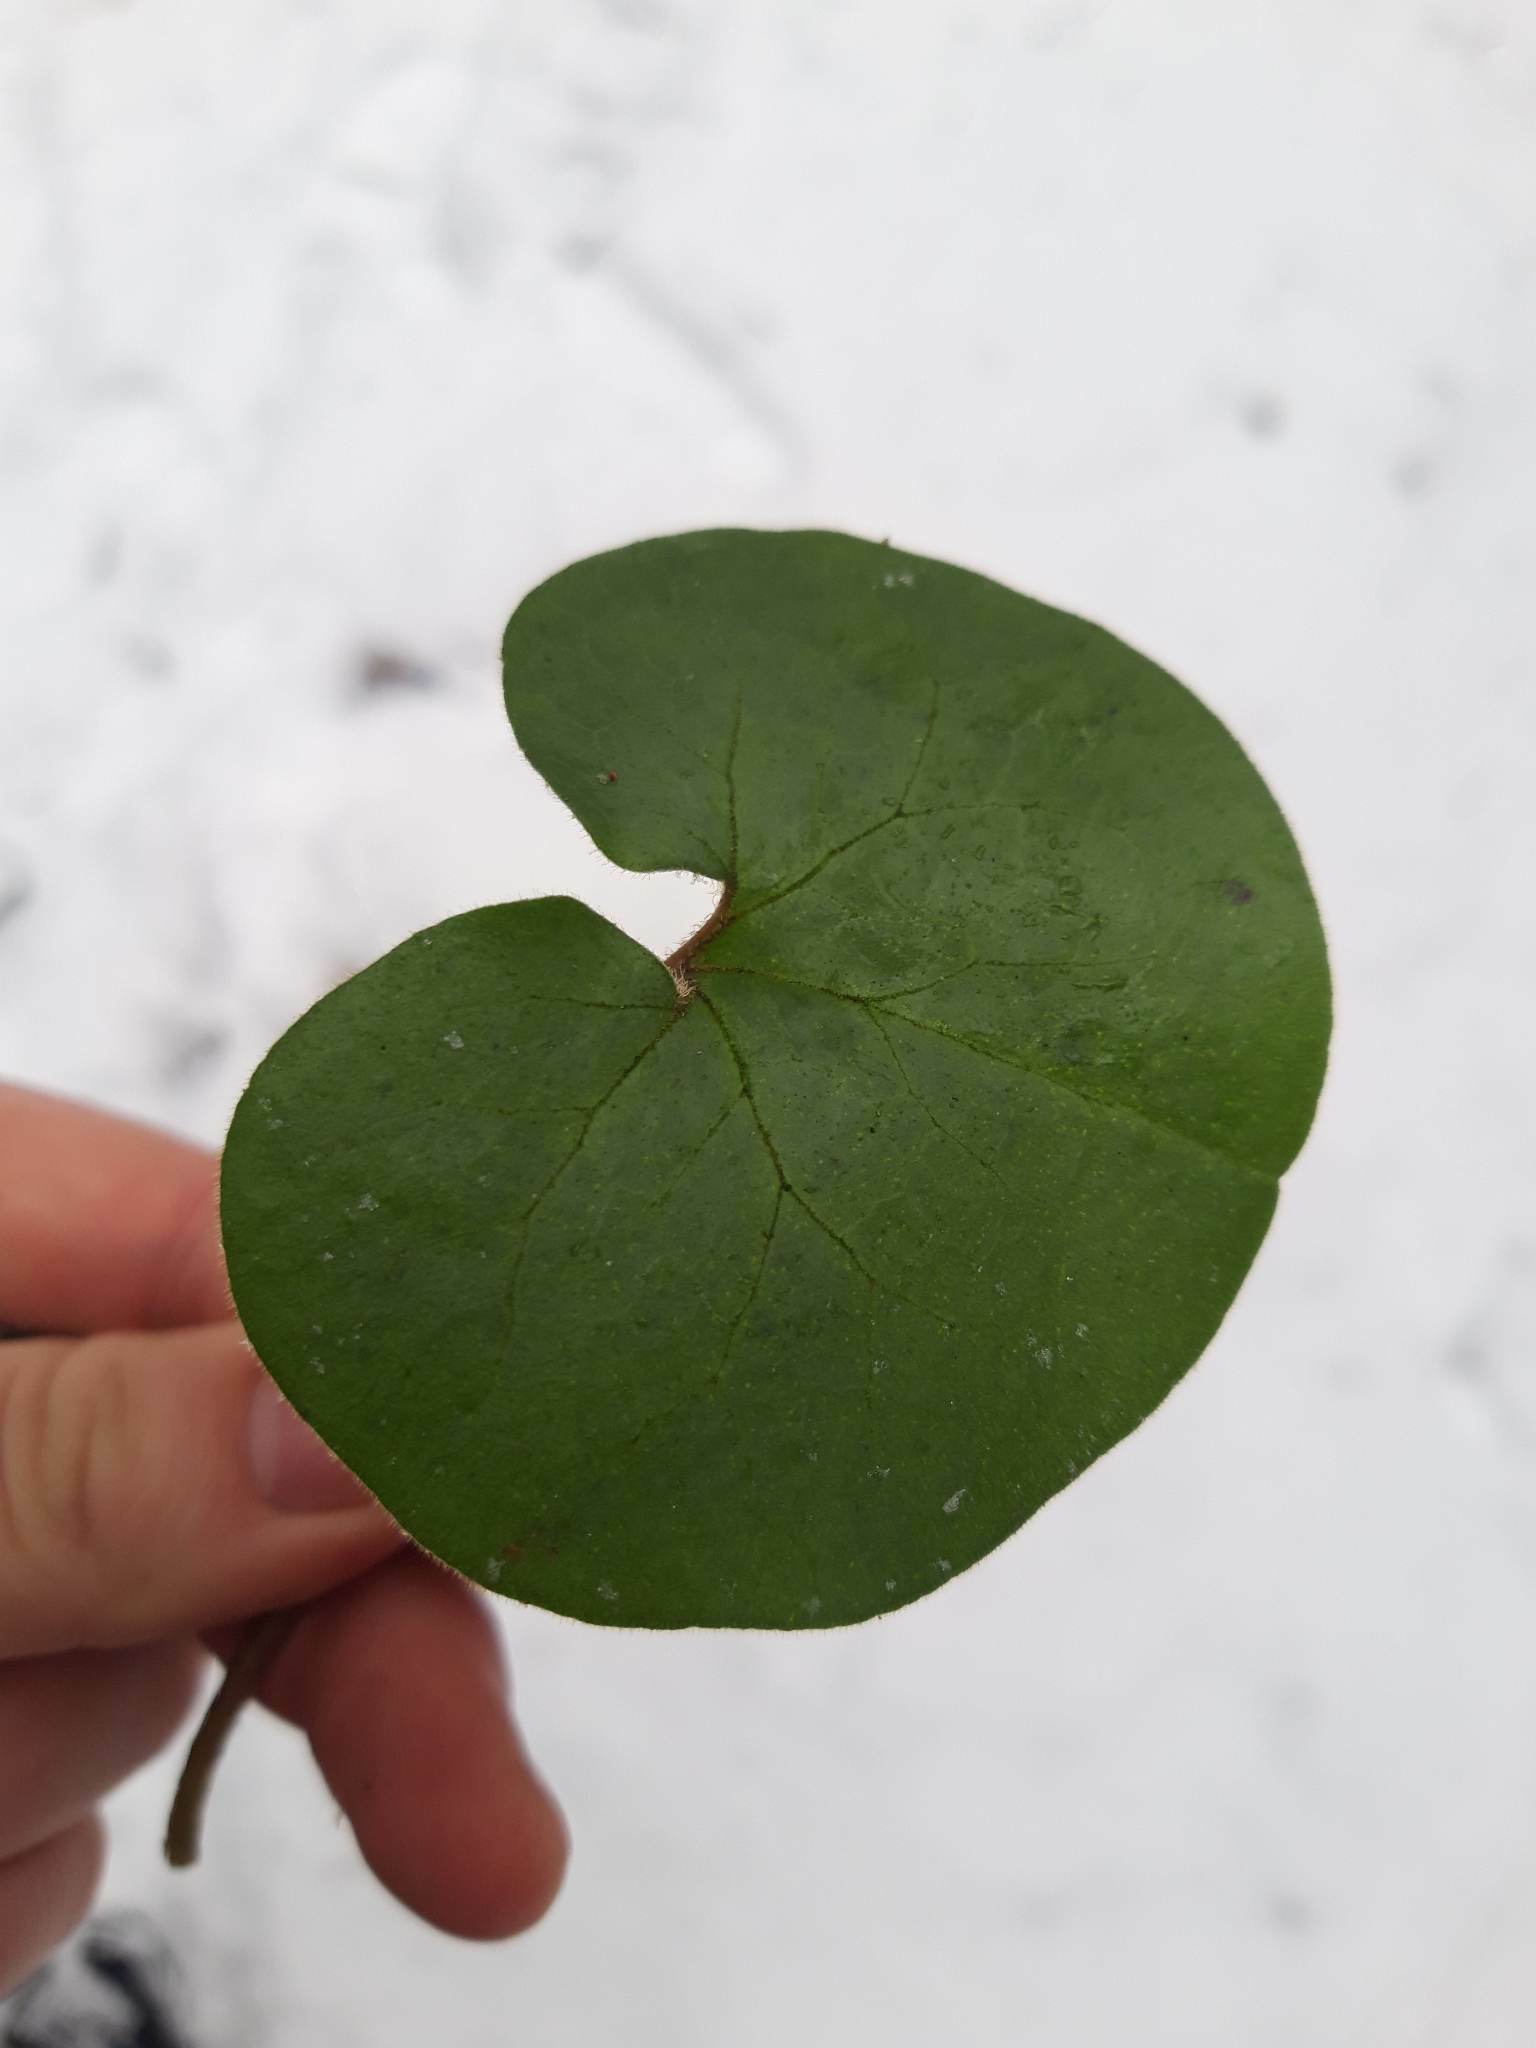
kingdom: Plantae
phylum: Tracheophyta
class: Magnoliopsida
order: Piperales
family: Aristolochiaceae
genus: Asarum
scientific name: Asarum europaeum
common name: Asarabacca
